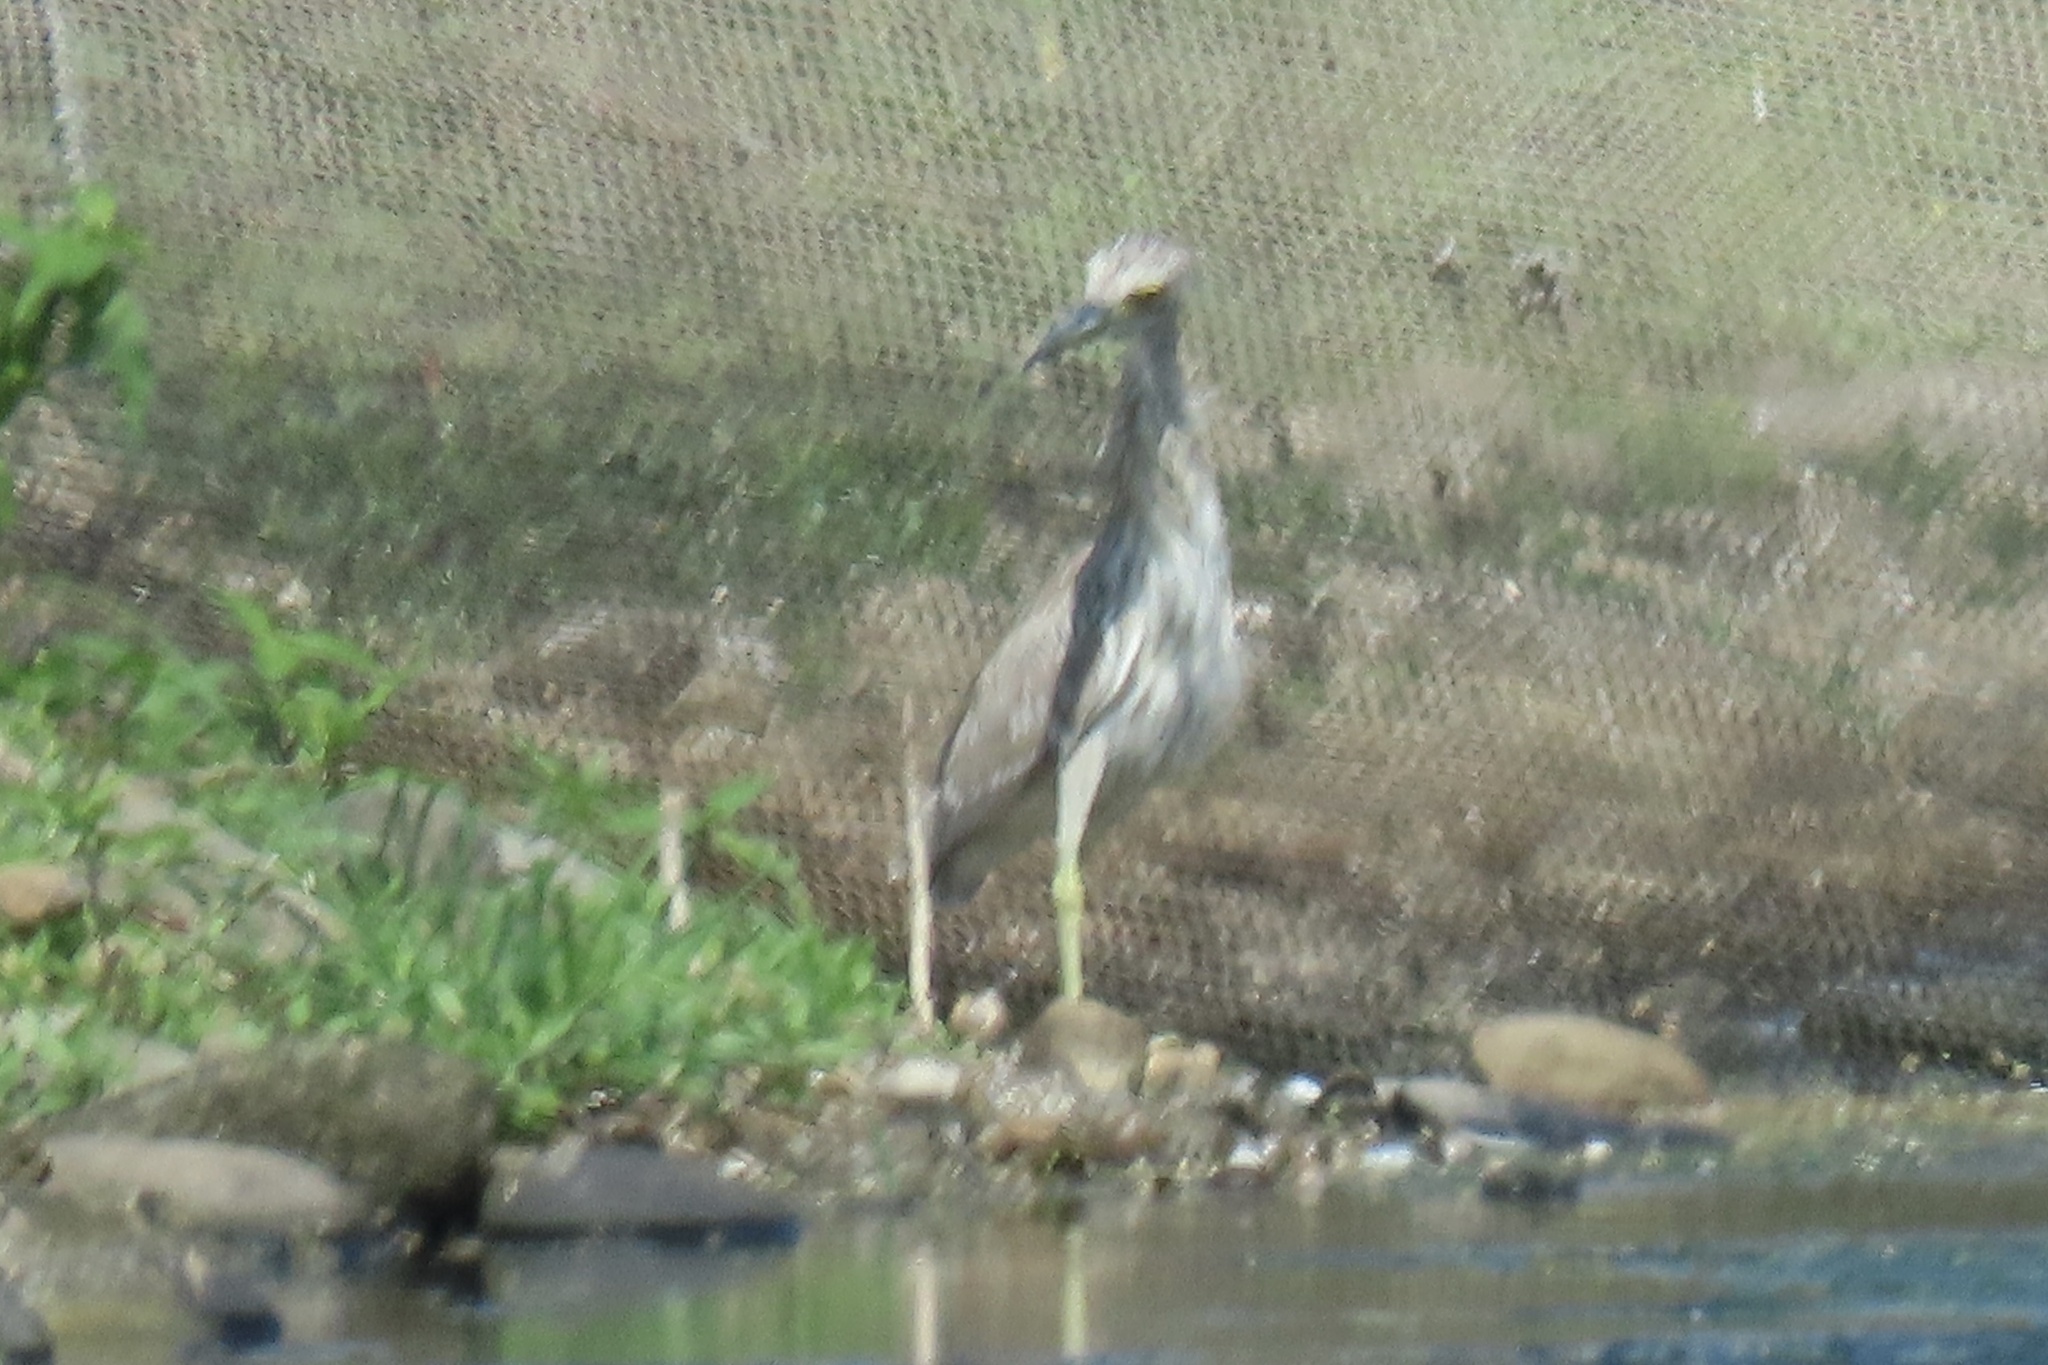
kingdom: Animalia
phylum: Chordata
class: Aves
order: Pelecaniformes
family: Ardeidae
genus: Nycticorax
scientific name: Nycticorax nycticorax
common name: Black-crowned night heron
